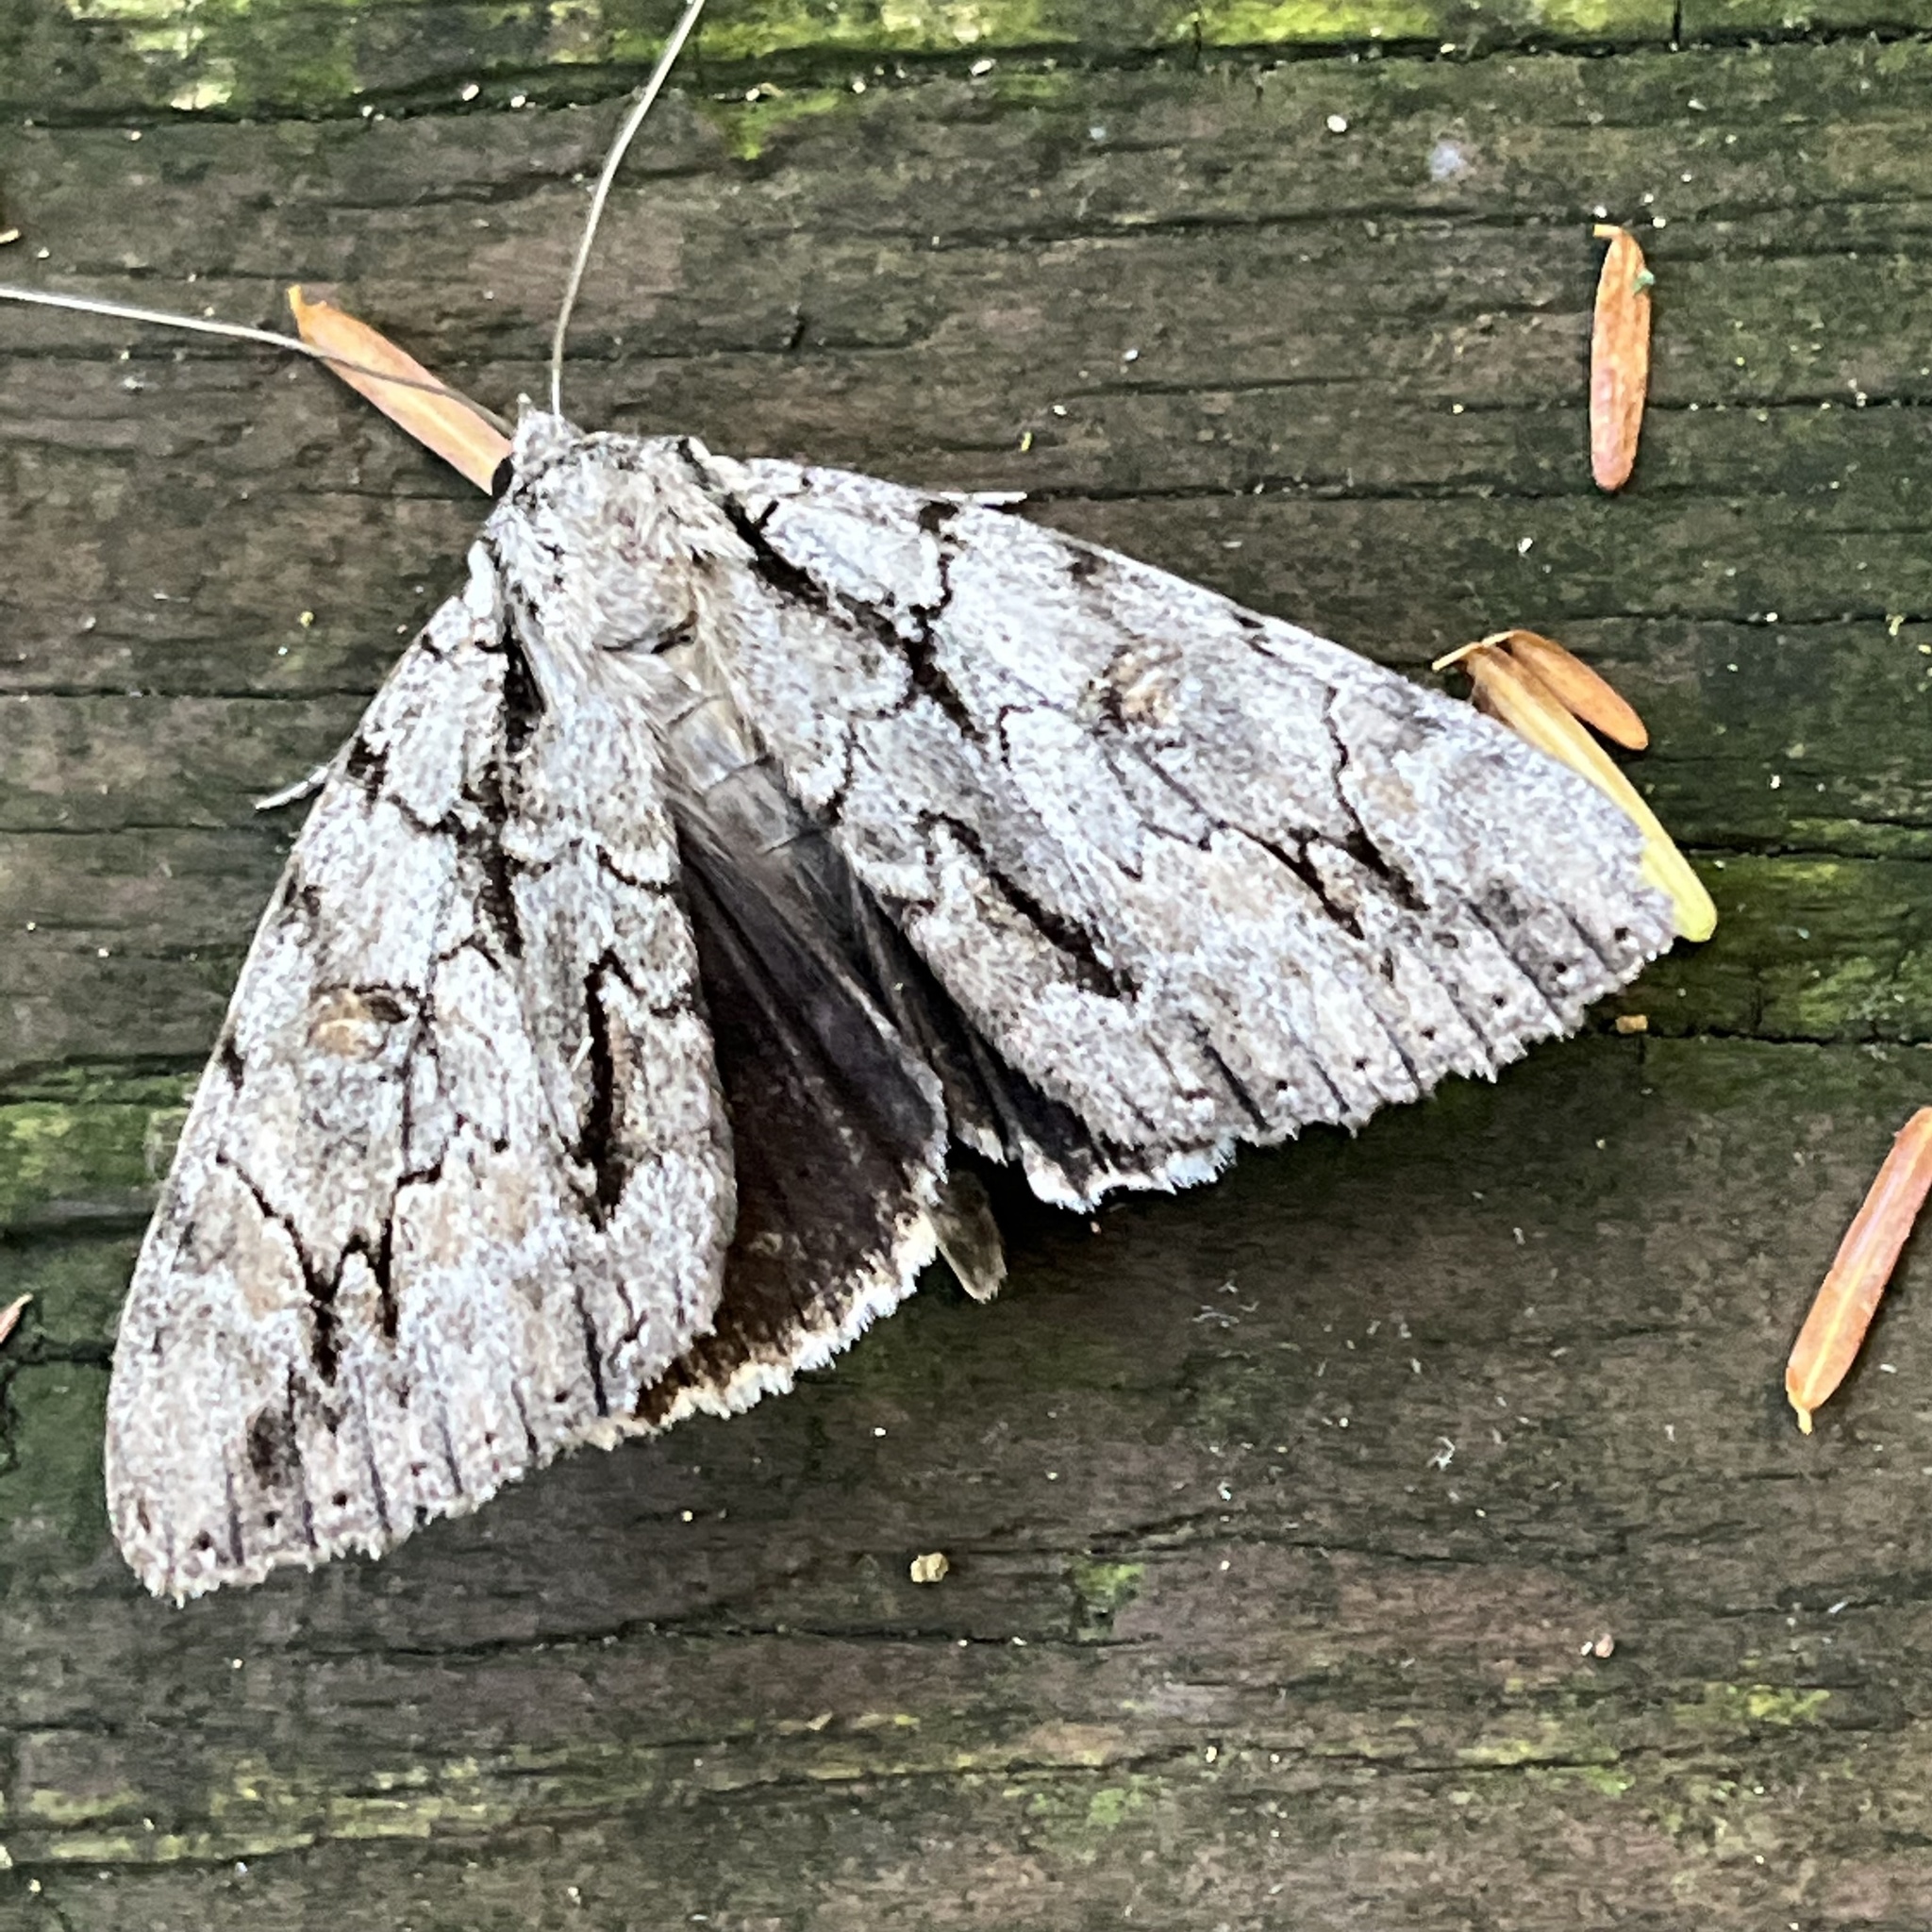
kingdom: Animalia
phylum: Arthropoda
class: Insecta
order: Lepidoptera
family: Erebidae
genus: Catocala
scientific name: Catocala retecta
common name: Yellow-gray underwing
